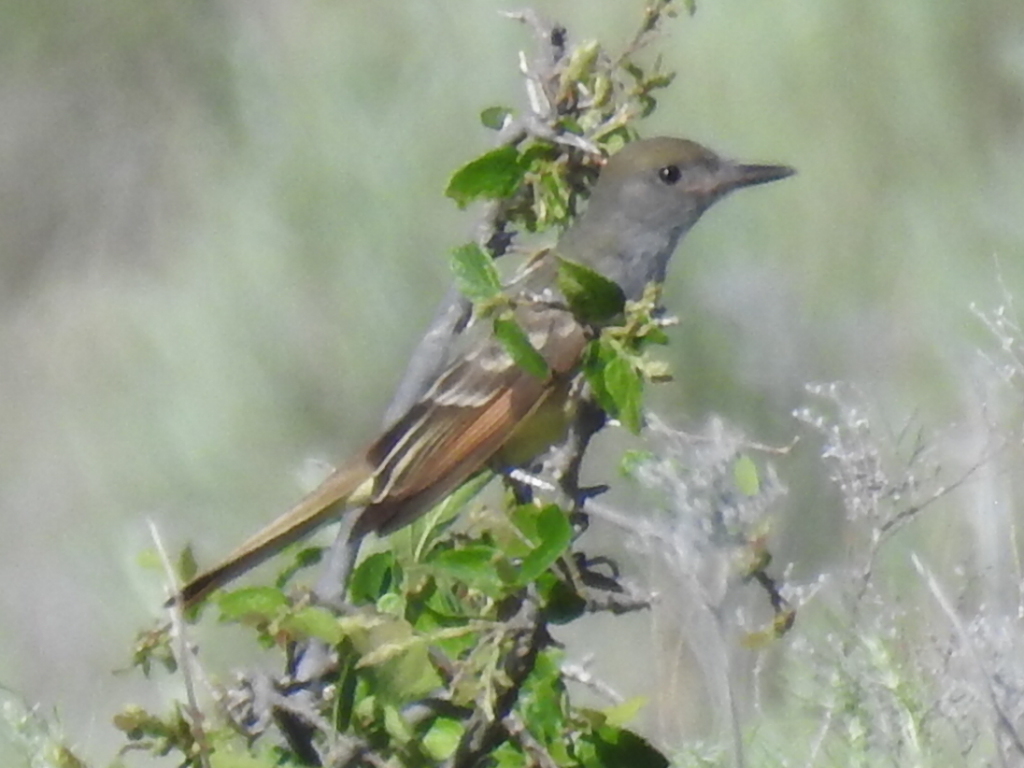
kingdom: Animalia
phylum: Chordata
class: Aves
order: Passeriformes
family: Tyrannidae
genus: Myiarchus
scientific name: Myiarchus crinitus
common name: Great crested flycatcher
